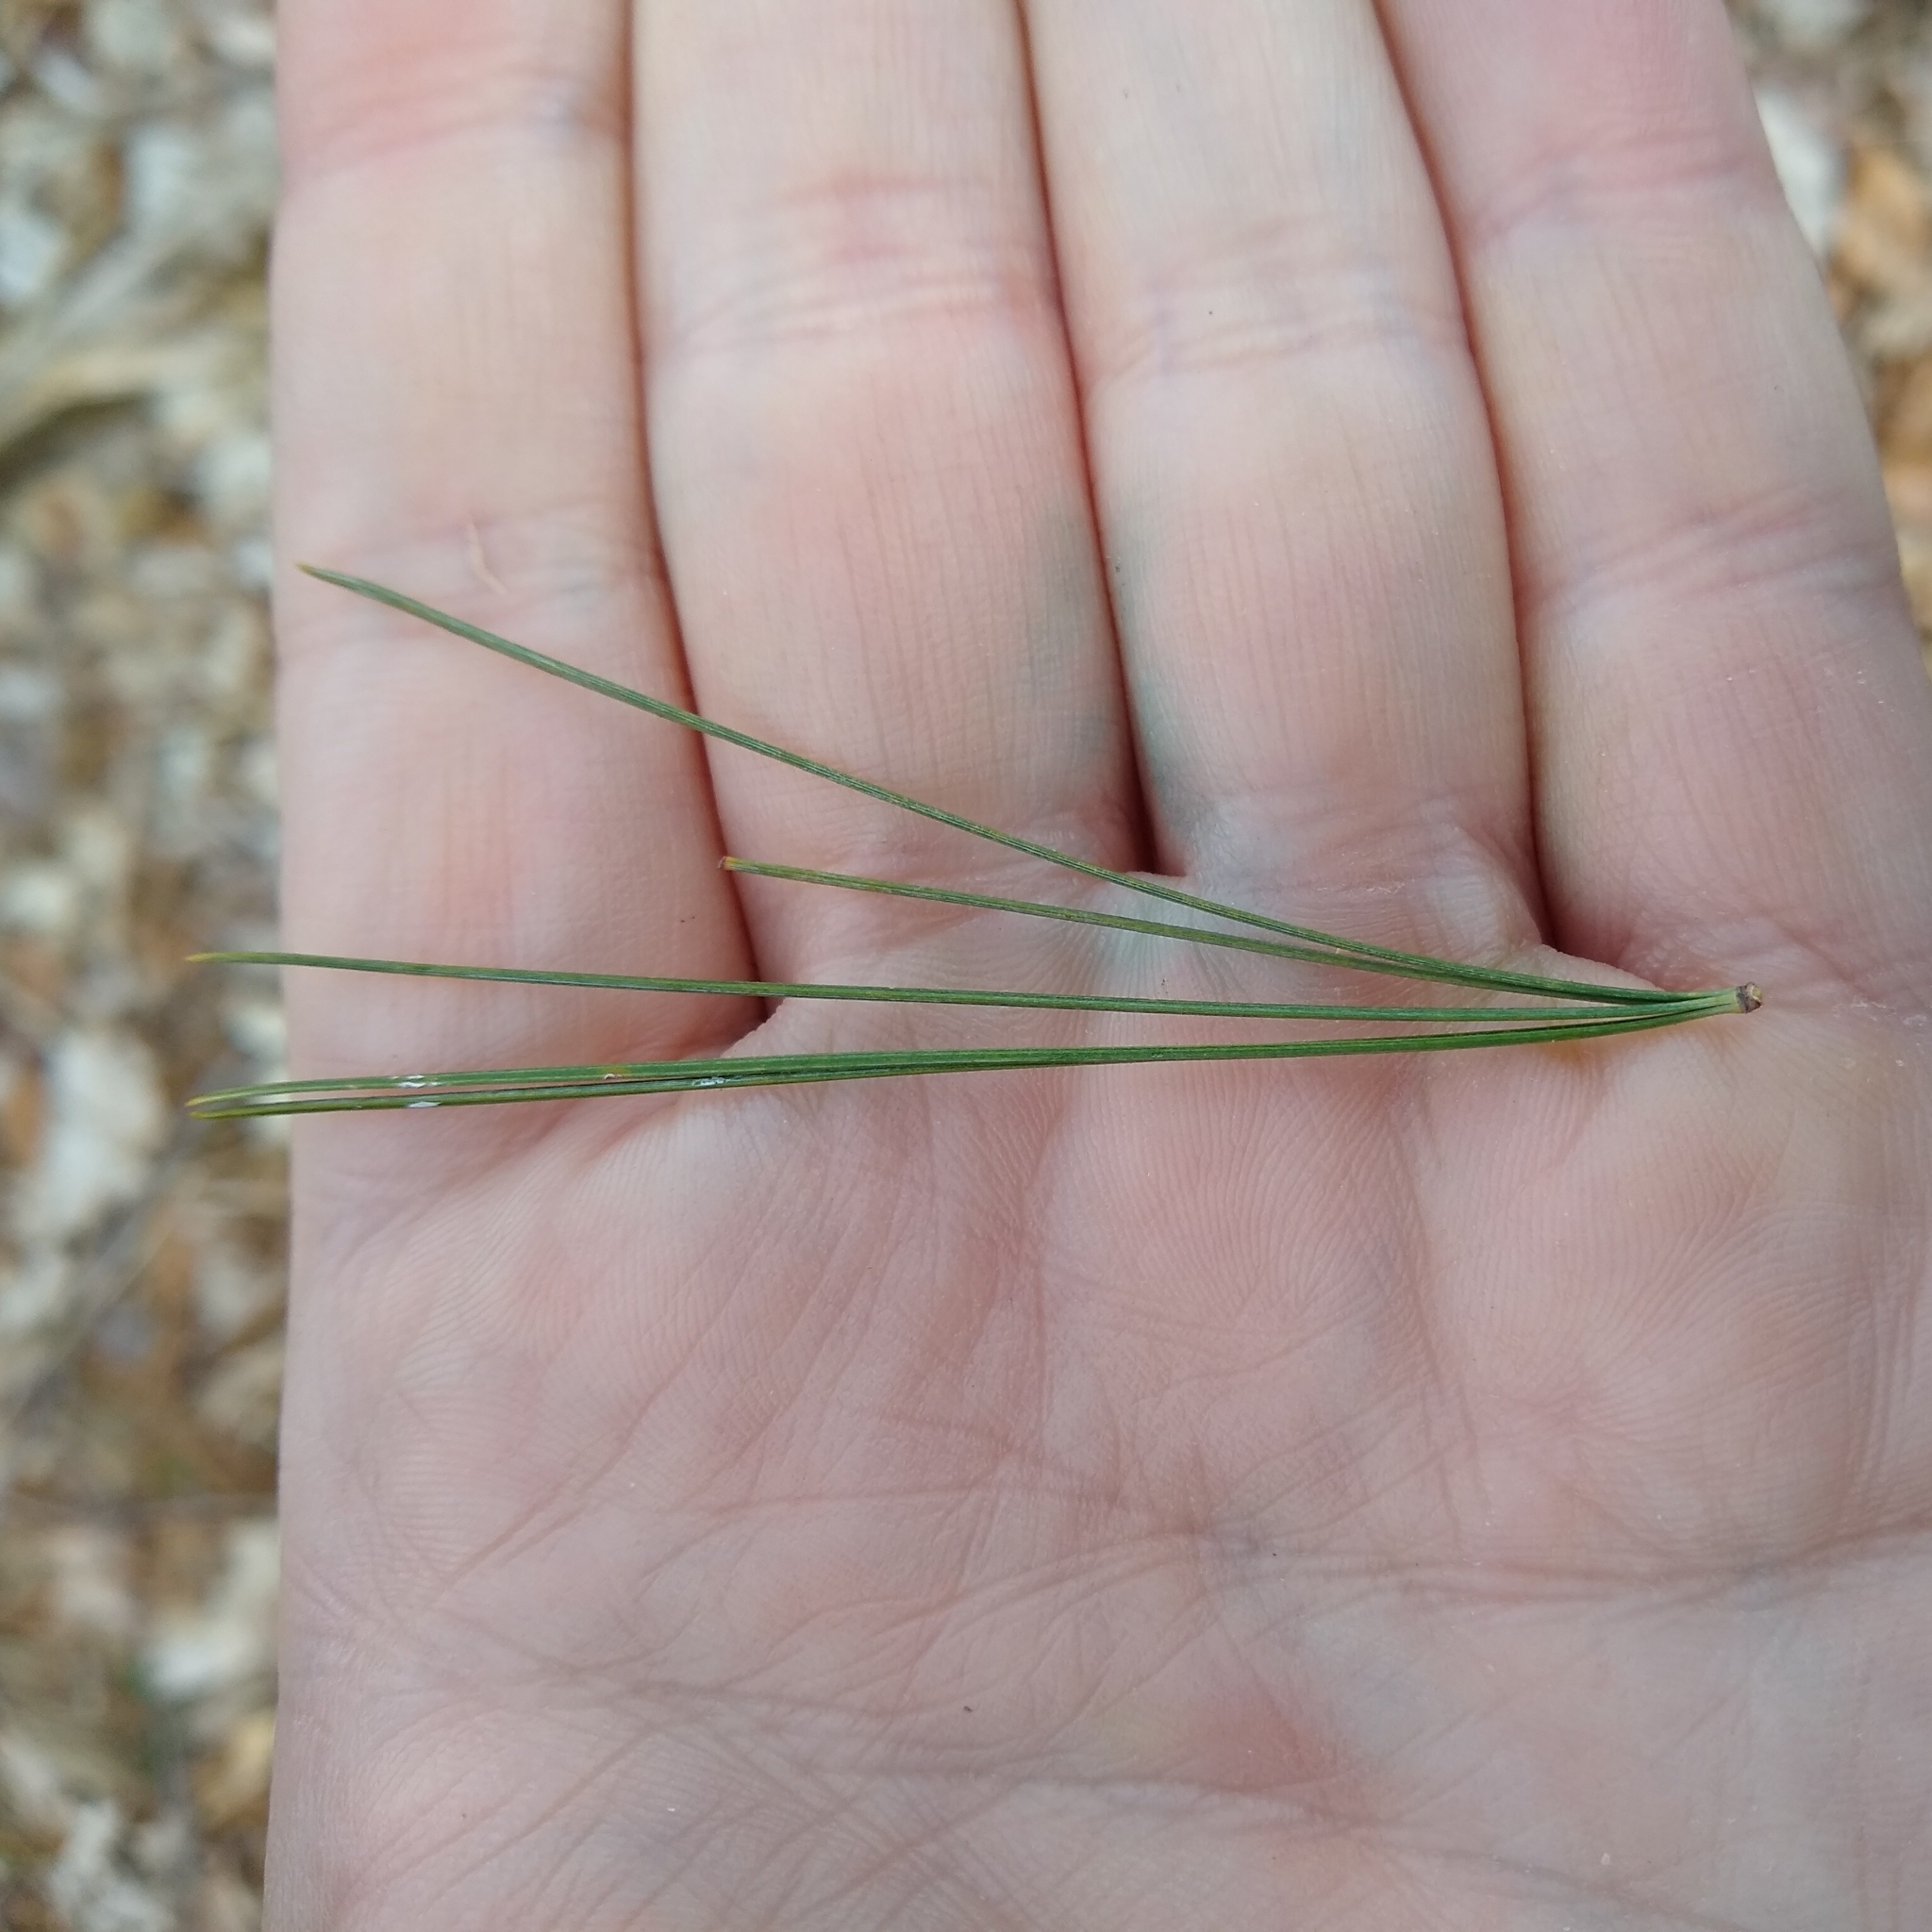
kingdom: Plantae
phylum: Tracheophyta
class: Pinopsida
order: Pinales
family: Pinaceae
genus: Pinus
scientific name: Pinus strobus
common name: Weymouth pine
